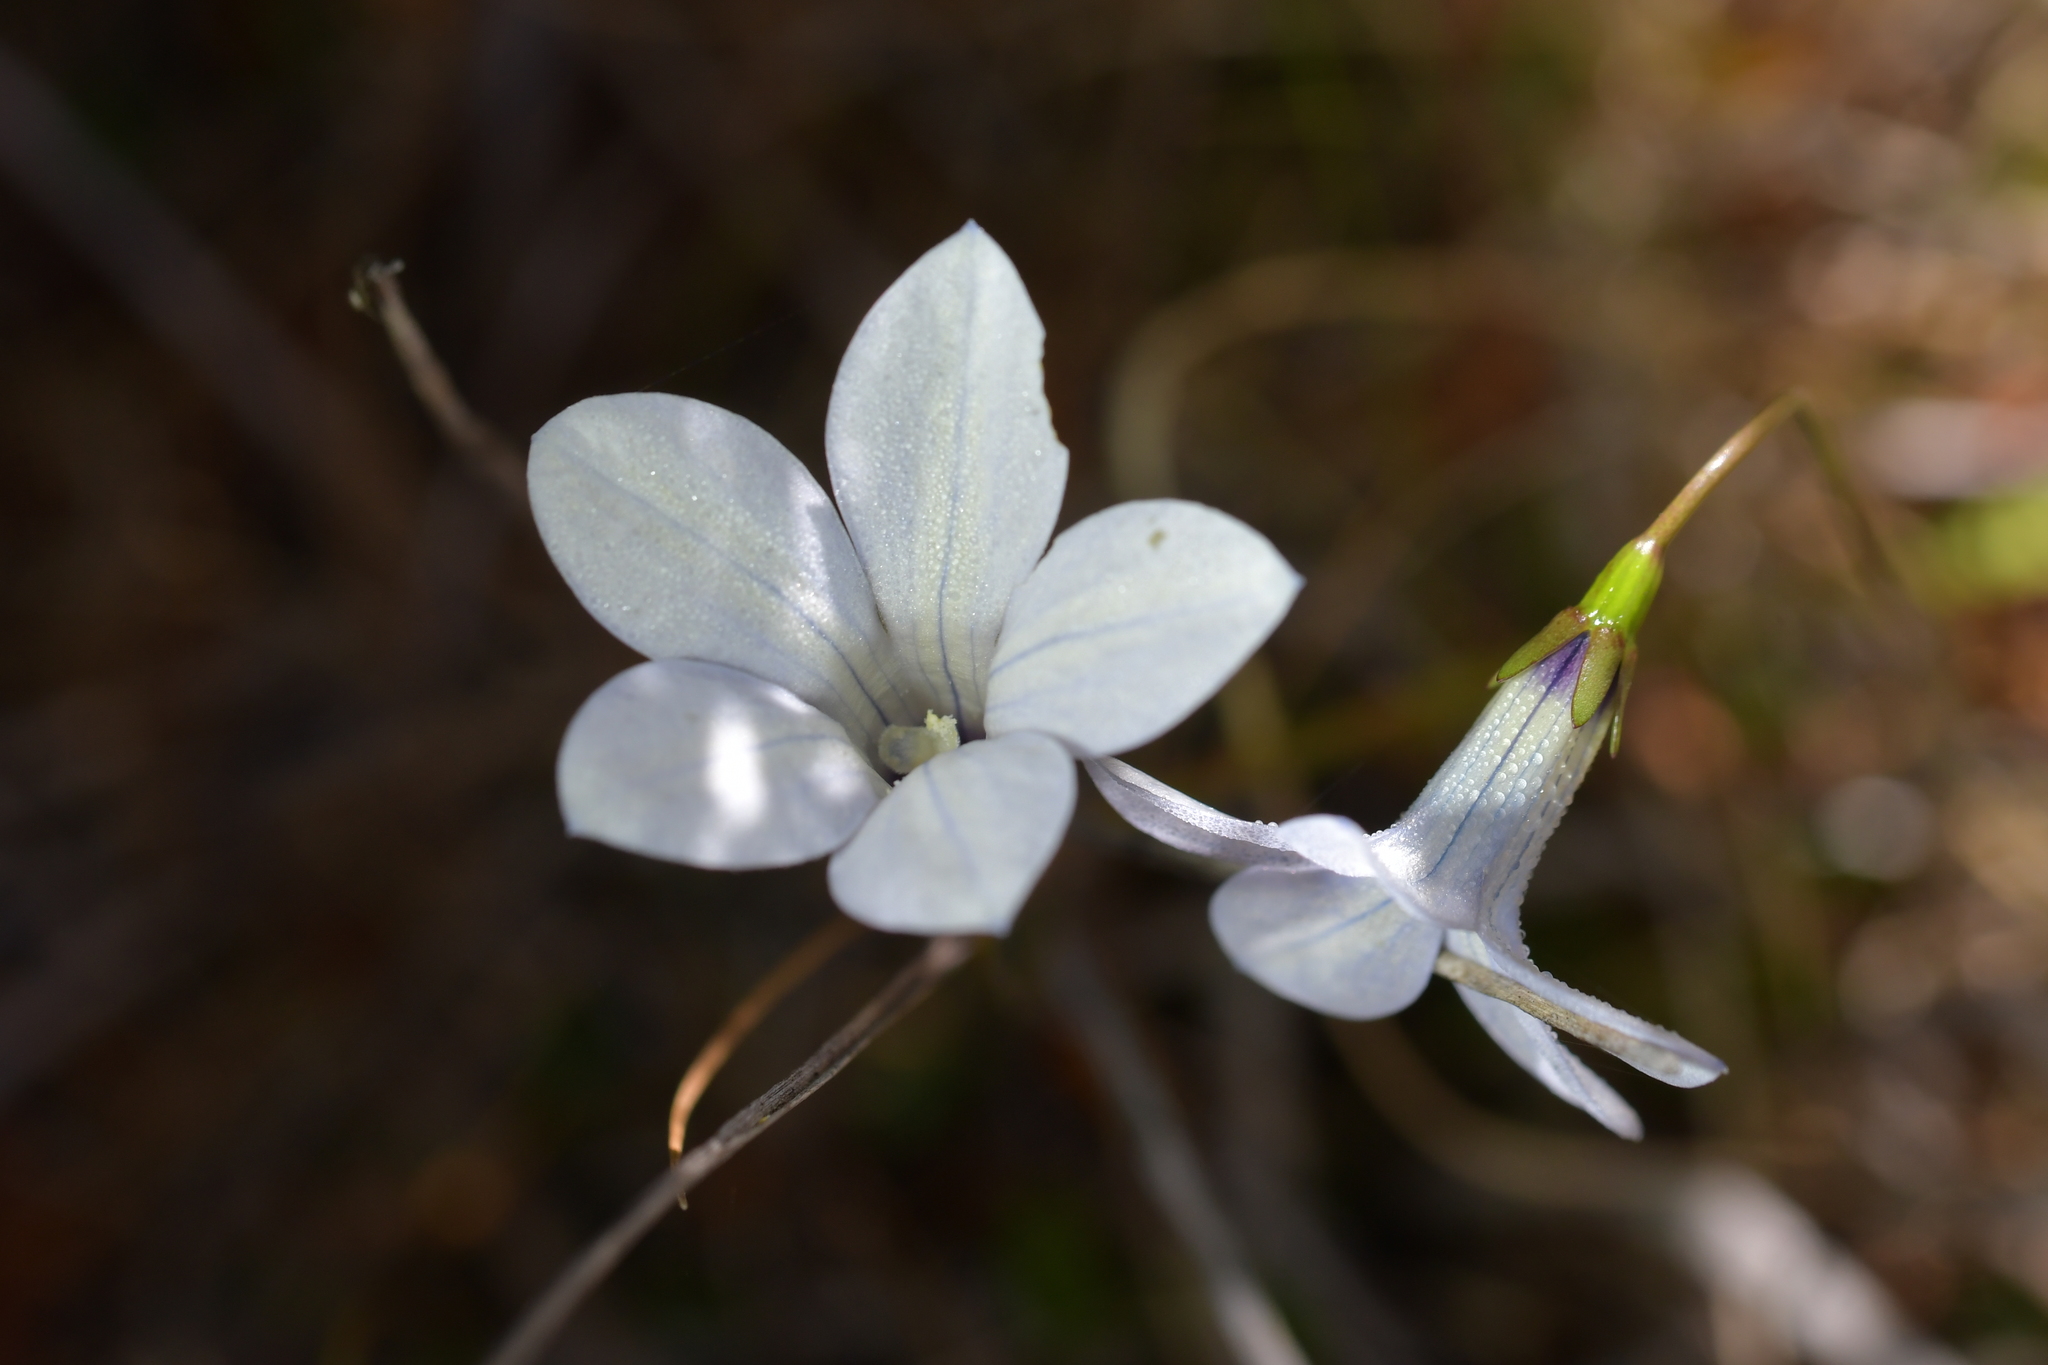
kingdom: Plantae
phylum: Tracheophyta
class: Magnoliopsida
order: Asterales
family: Campanulaceae
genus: Wahlenbergia
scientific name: Wahlenbergia albomarginata
